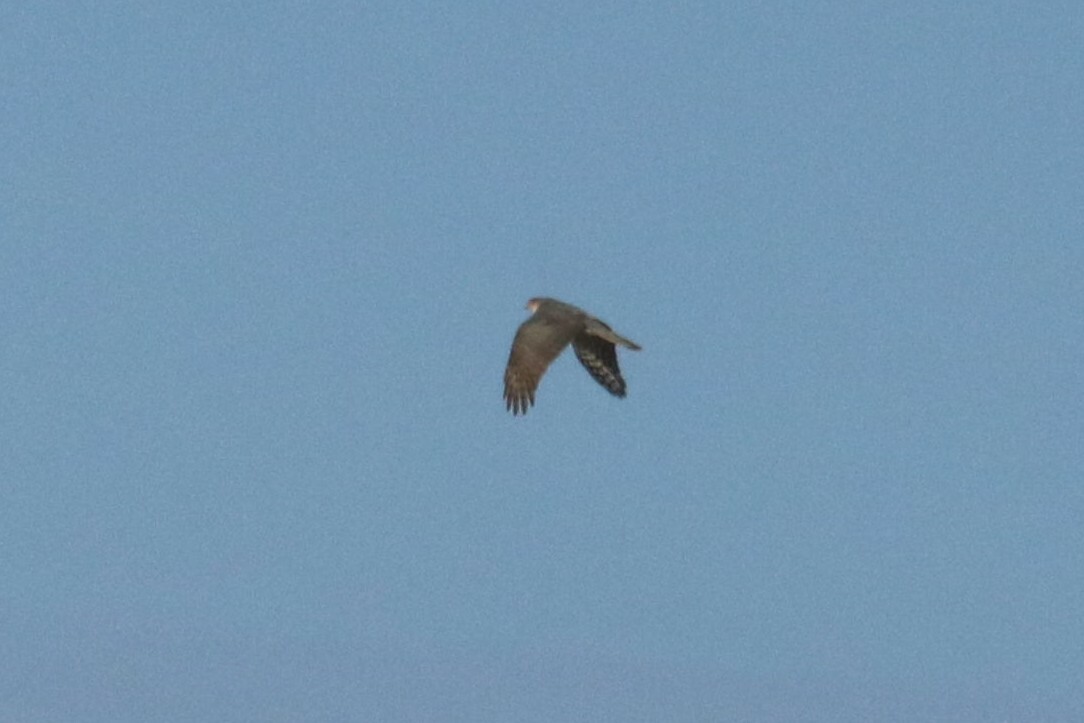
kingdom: Animalia
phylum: Chordata
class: Aves
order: Accipitriformes
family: Accipitridae
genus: Accipiter
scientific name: Accipiter nisus
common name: Eurasian sparrowhawk
